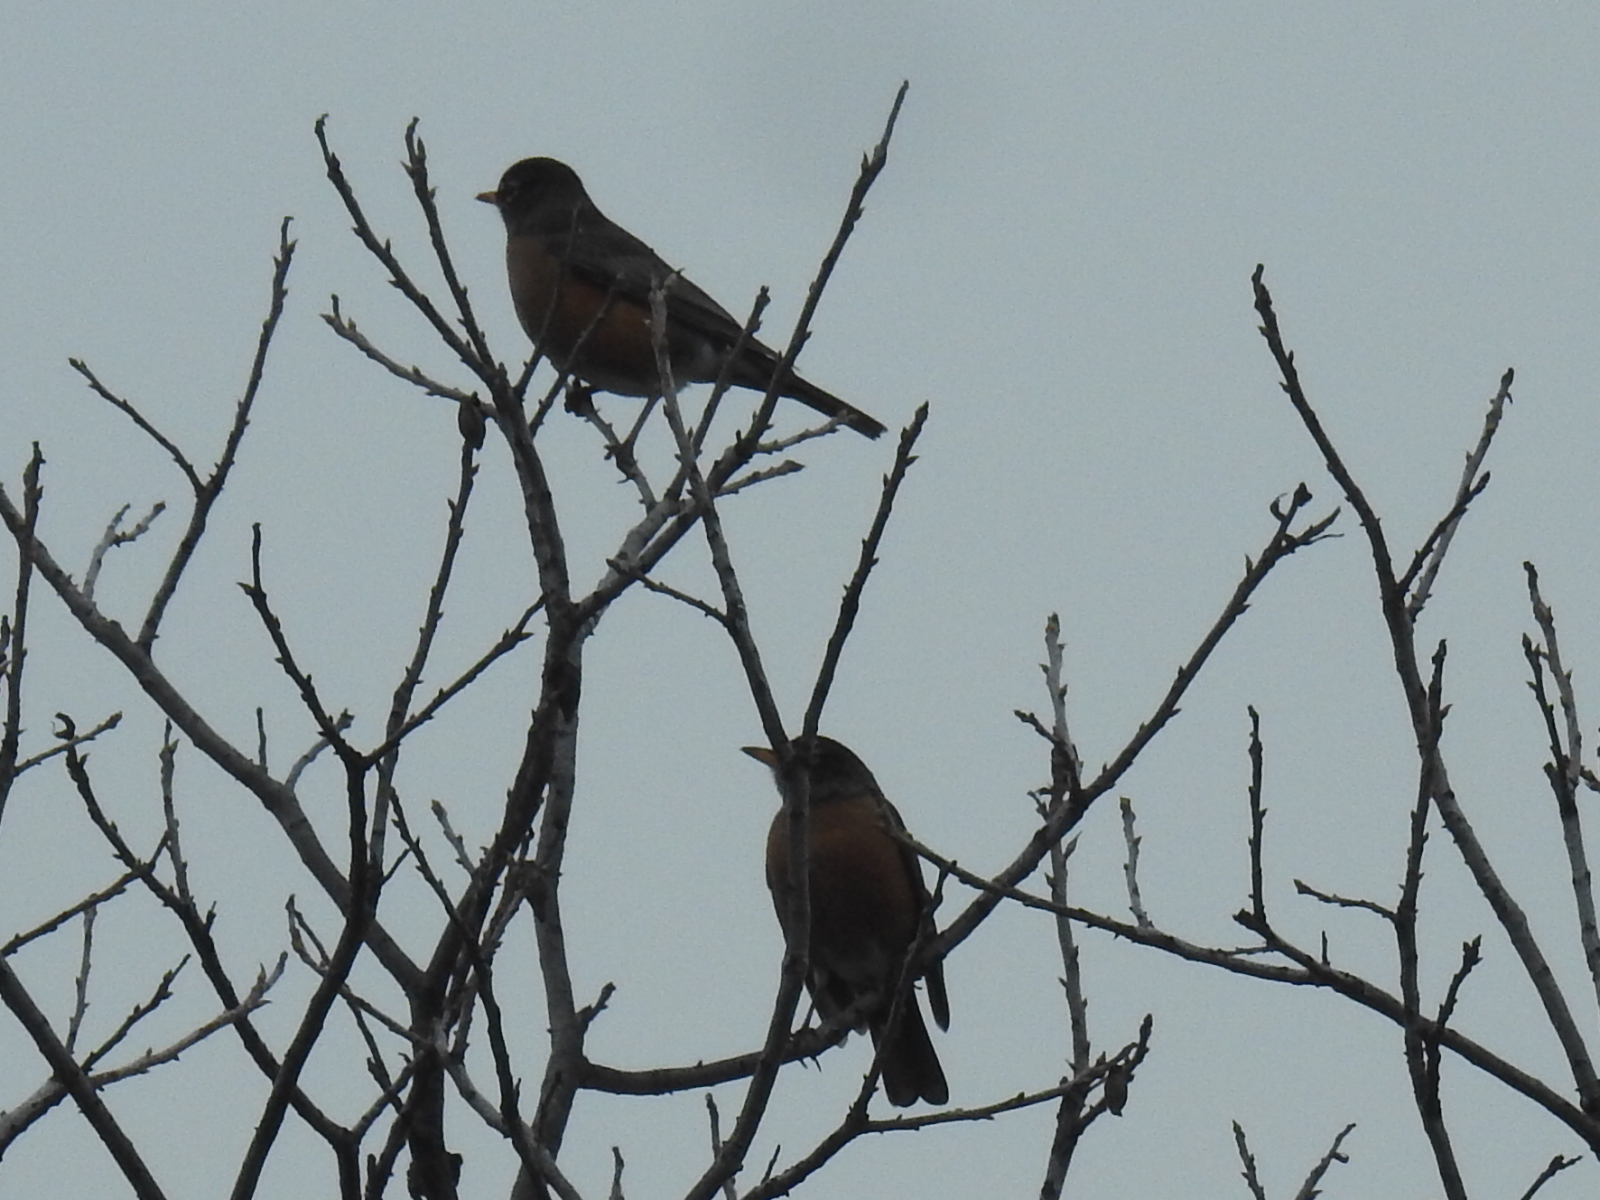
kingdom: Animalia
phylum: Chordata
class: Aves
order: Passeriformes
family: Turdidae
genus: Turdus
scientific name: Turdus migratorius
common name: American robin
